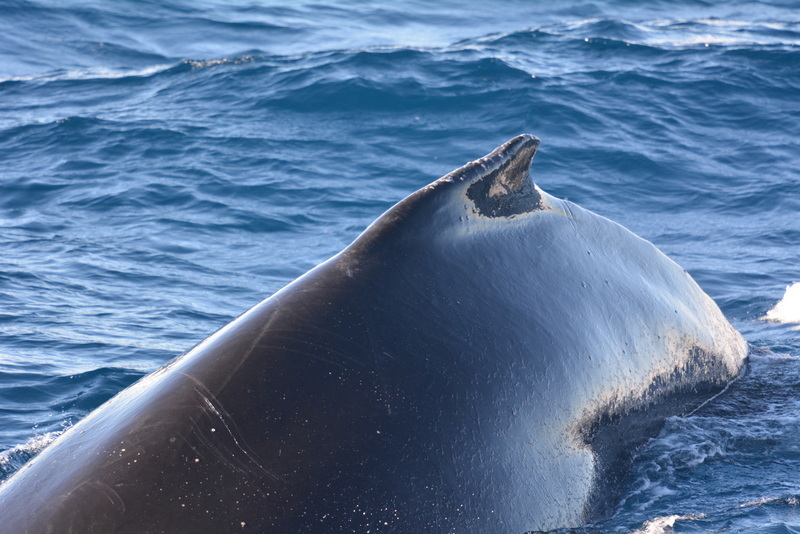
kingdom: Animalia
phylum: Chordata
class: Mammalia
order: Cetacea
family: Balaenopteridae
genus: Megaptera
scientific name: Megaptera novaeangliae
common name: Humpback whale
